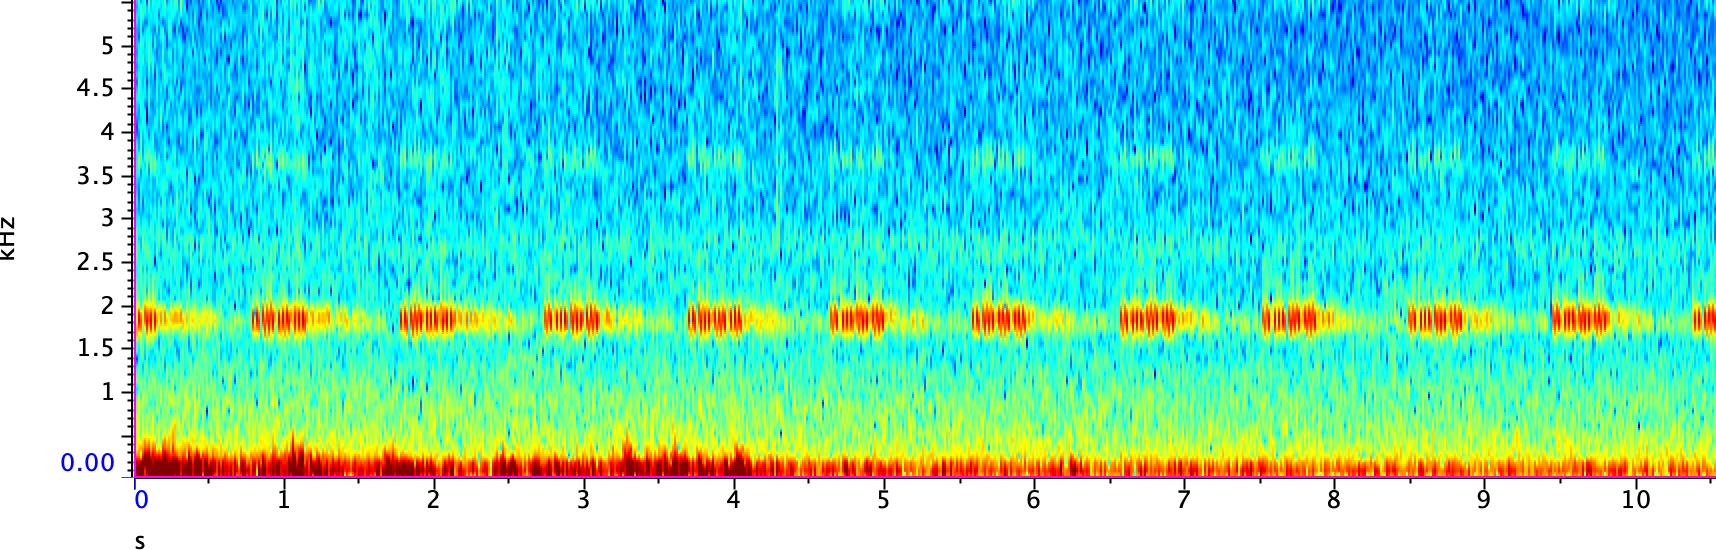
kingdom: Animalia
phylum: Arthropoda
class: Insecta
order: Orthoptera
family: Gryllidae
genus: Oecanthus
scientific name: Oecanthus rileyi
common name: Riley's tree cricket
